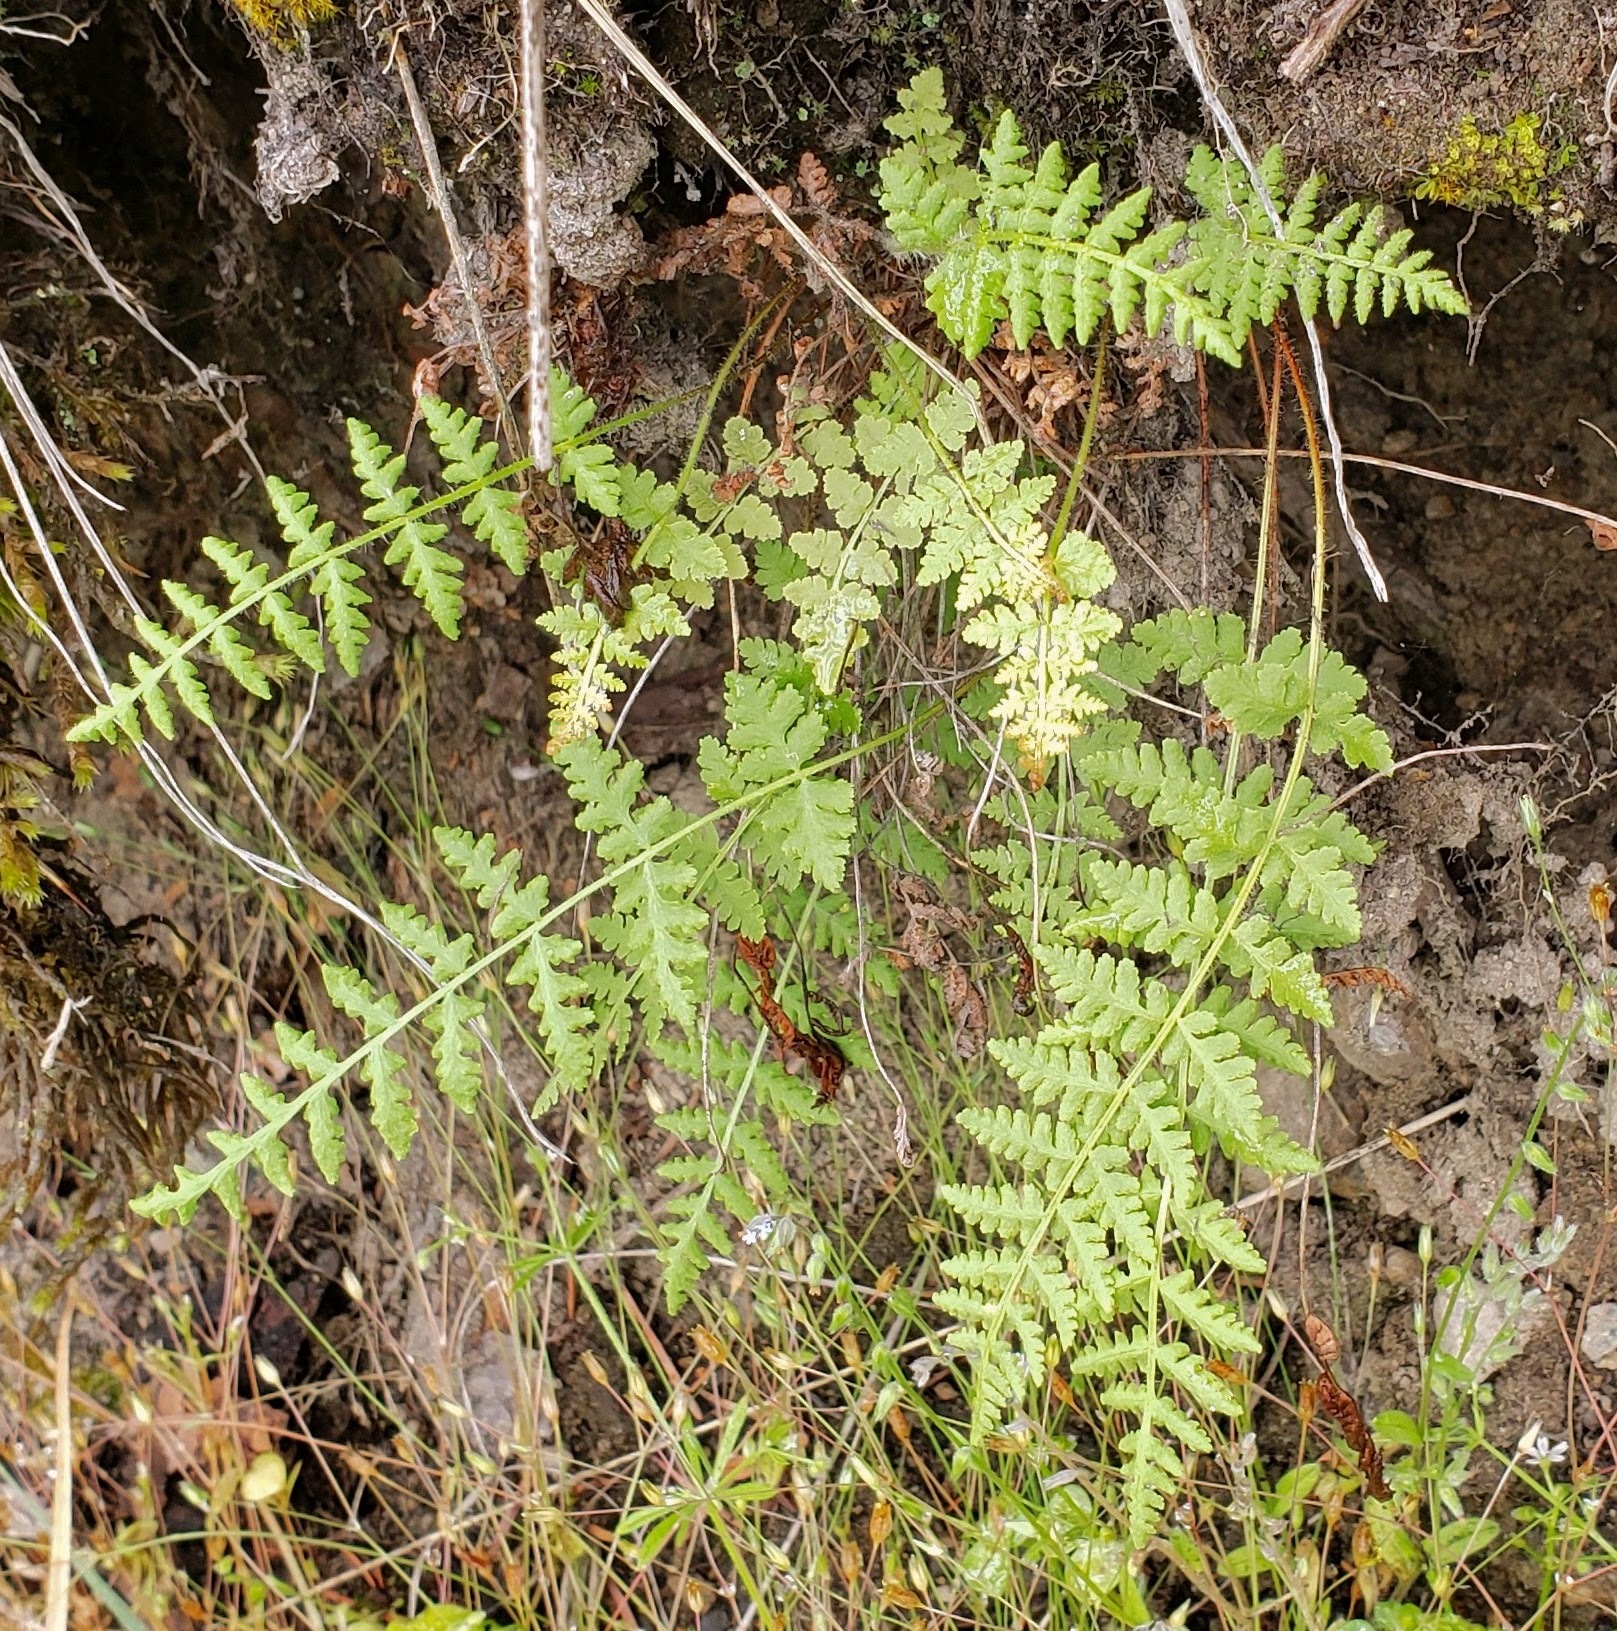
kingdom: Plantae
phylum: Tracheophyta
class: Polypodiopsida
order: Polypodiales
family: Woodsiaceae
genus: Physematium
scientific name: Physematium scopulinum
